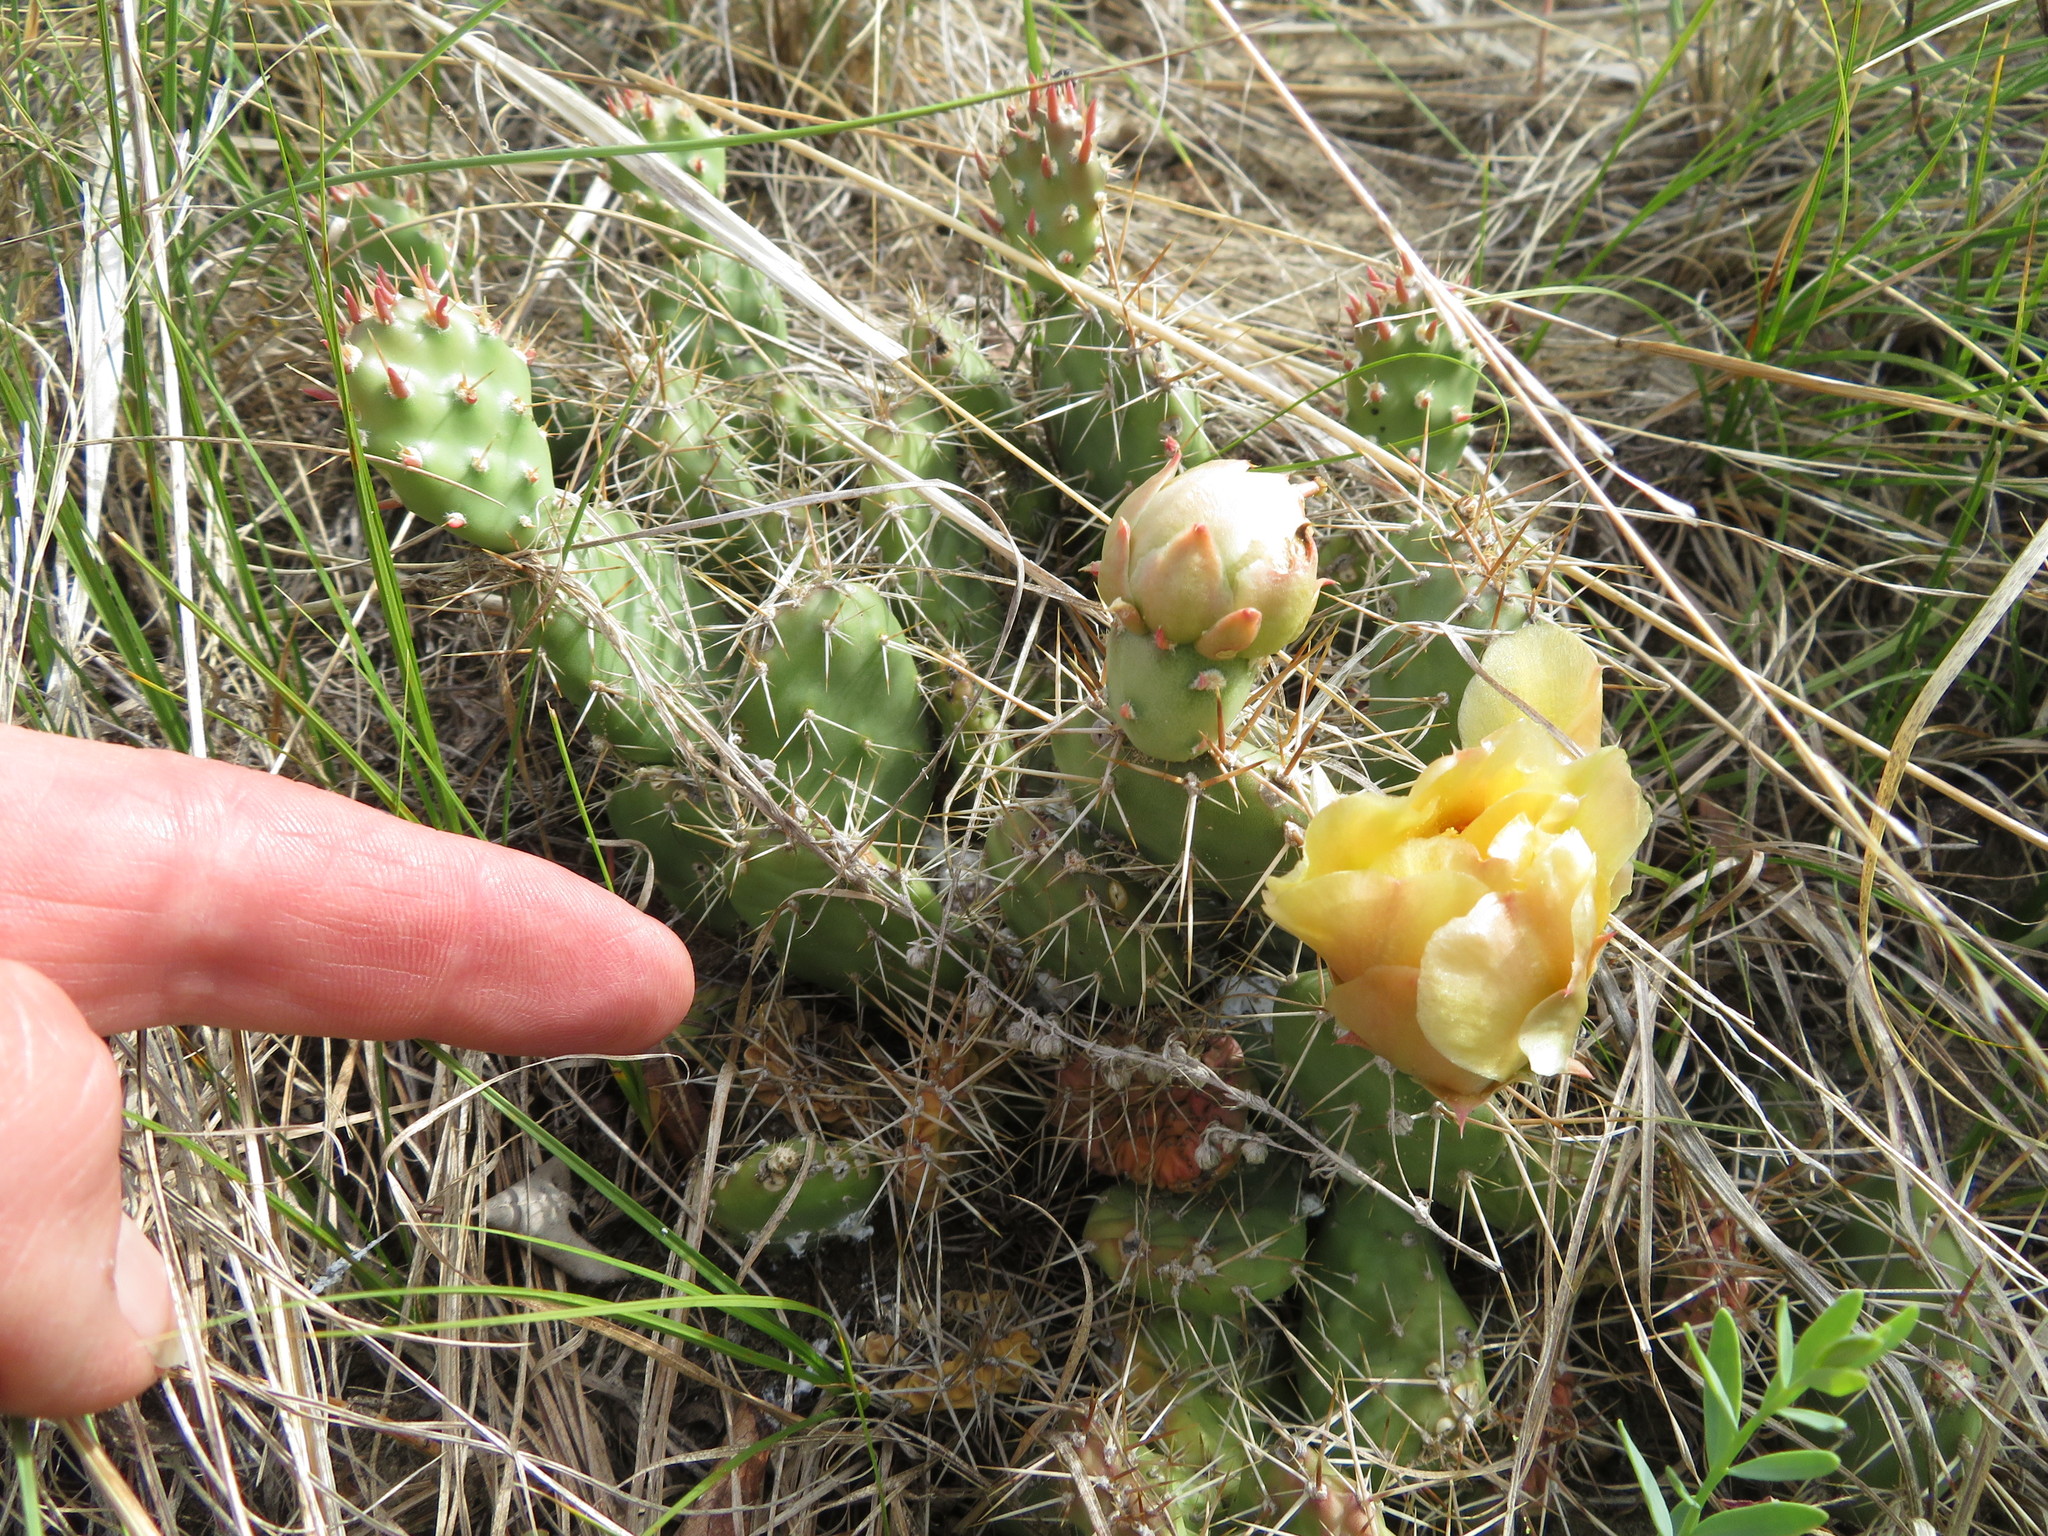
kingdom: Plantae
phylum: Tracheophyta
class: Magnoliopsida
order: Caryophyllales
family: Cactaceae
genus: Opuntia
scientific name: Opuntia fragilis
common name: Brittle cactus
